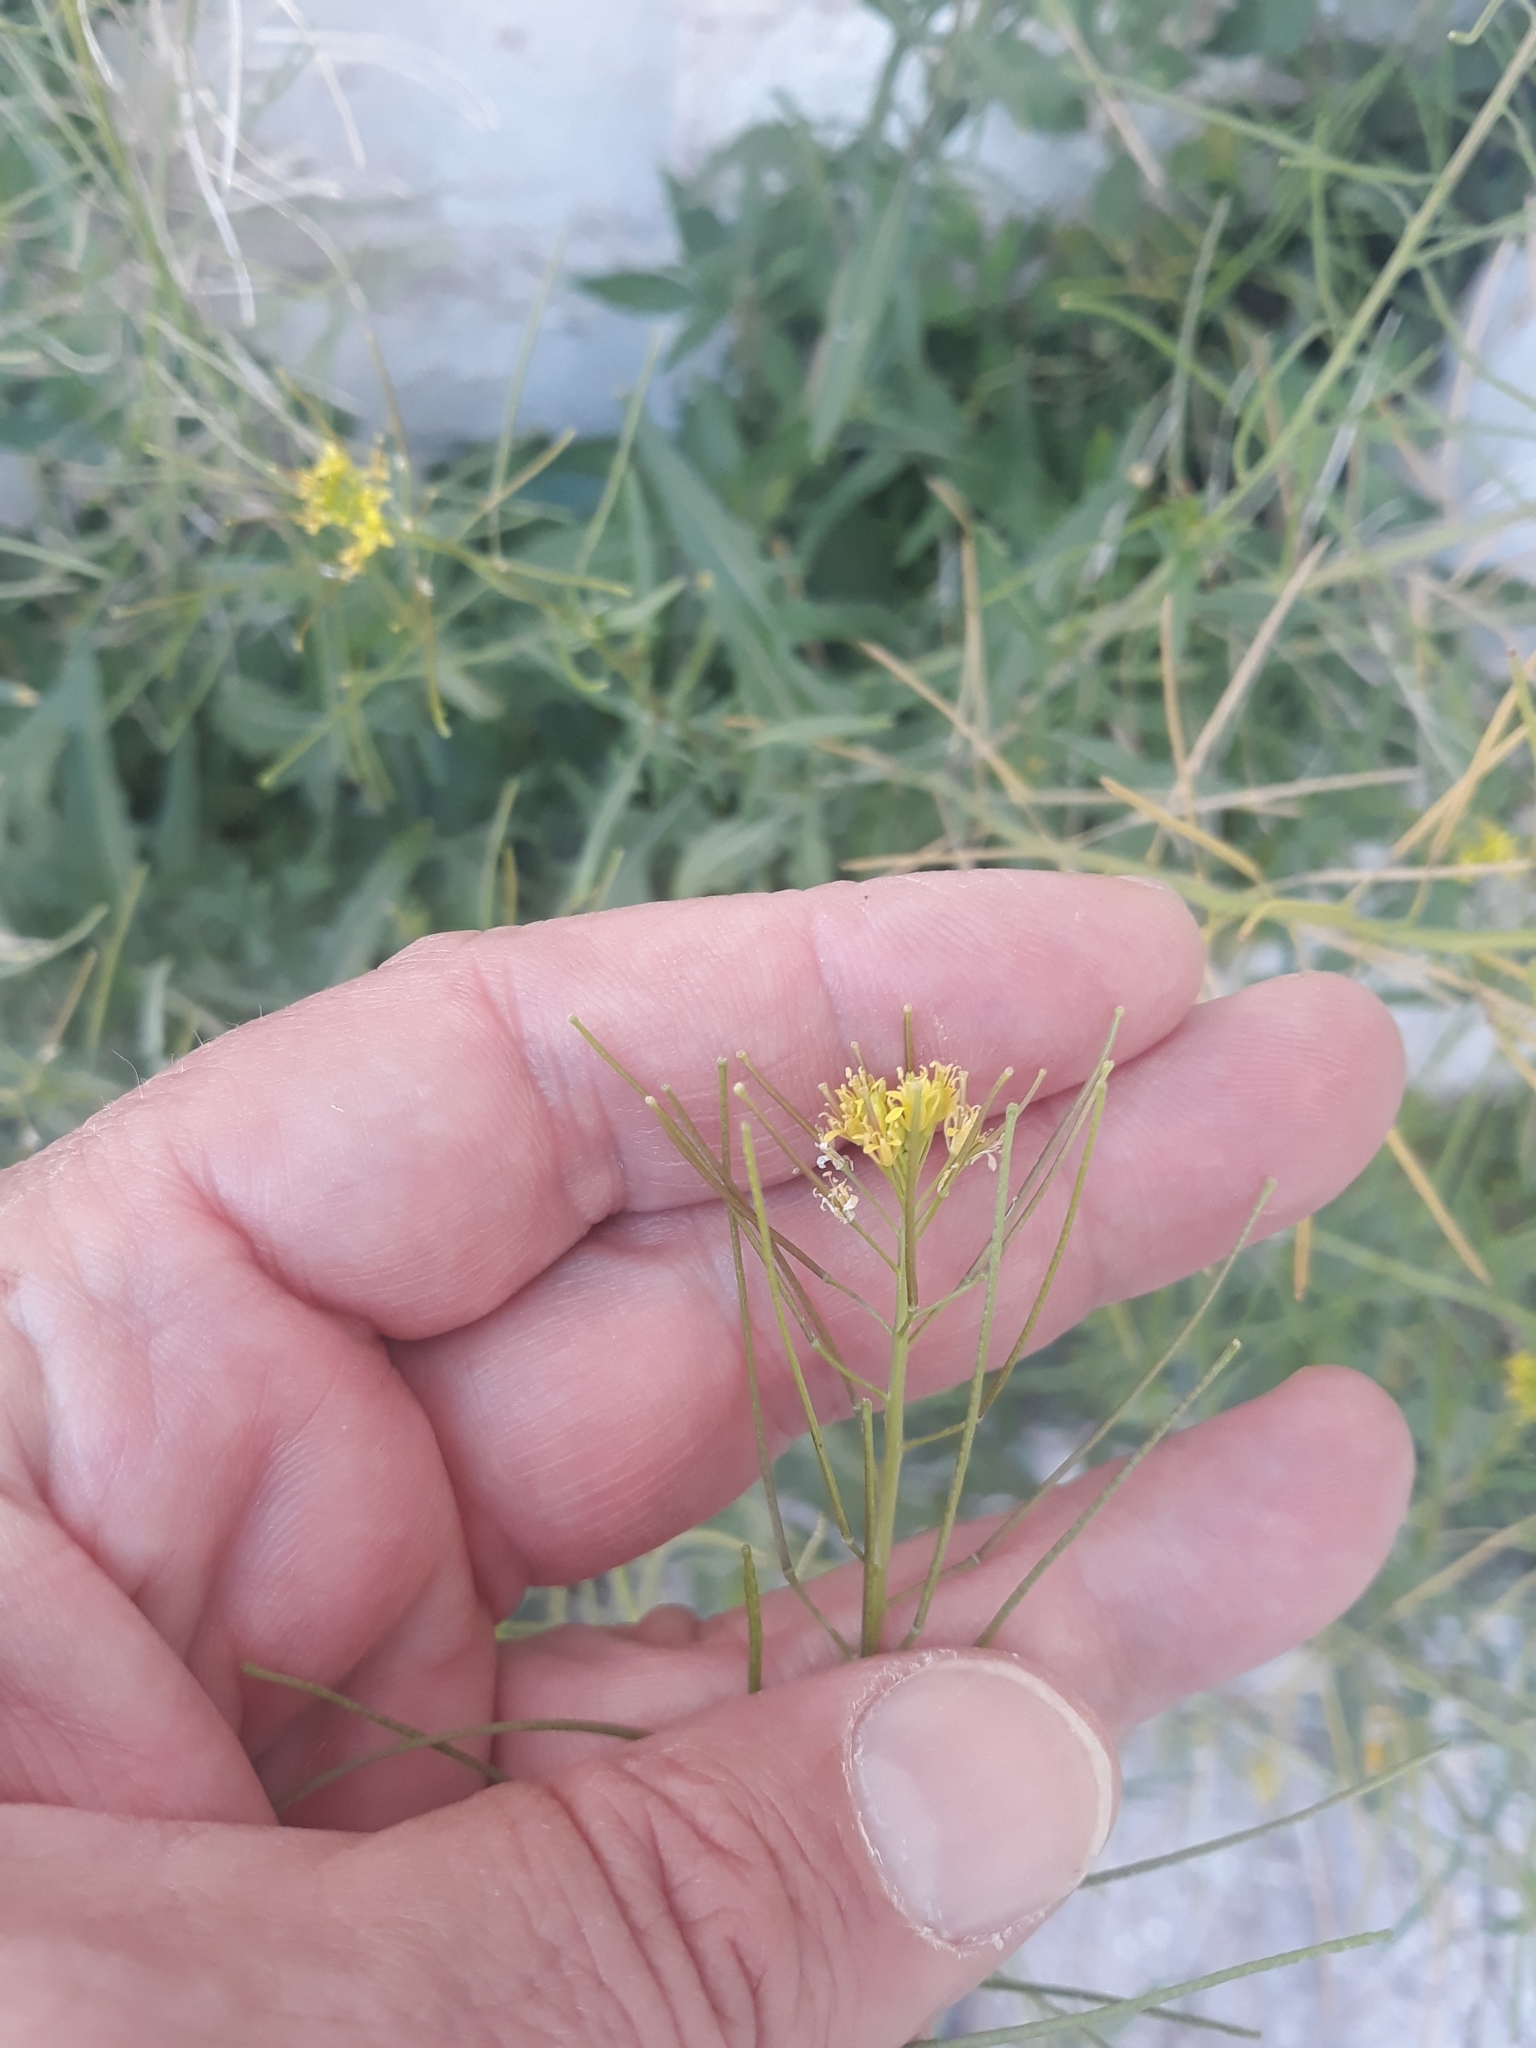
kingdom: Plantae
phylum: Tracheophyta
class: Magnoliopsida
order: Brassicales
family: Brassicaceae
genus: Sisymbrium
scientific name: Sisymbrium irio
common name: London rocket
